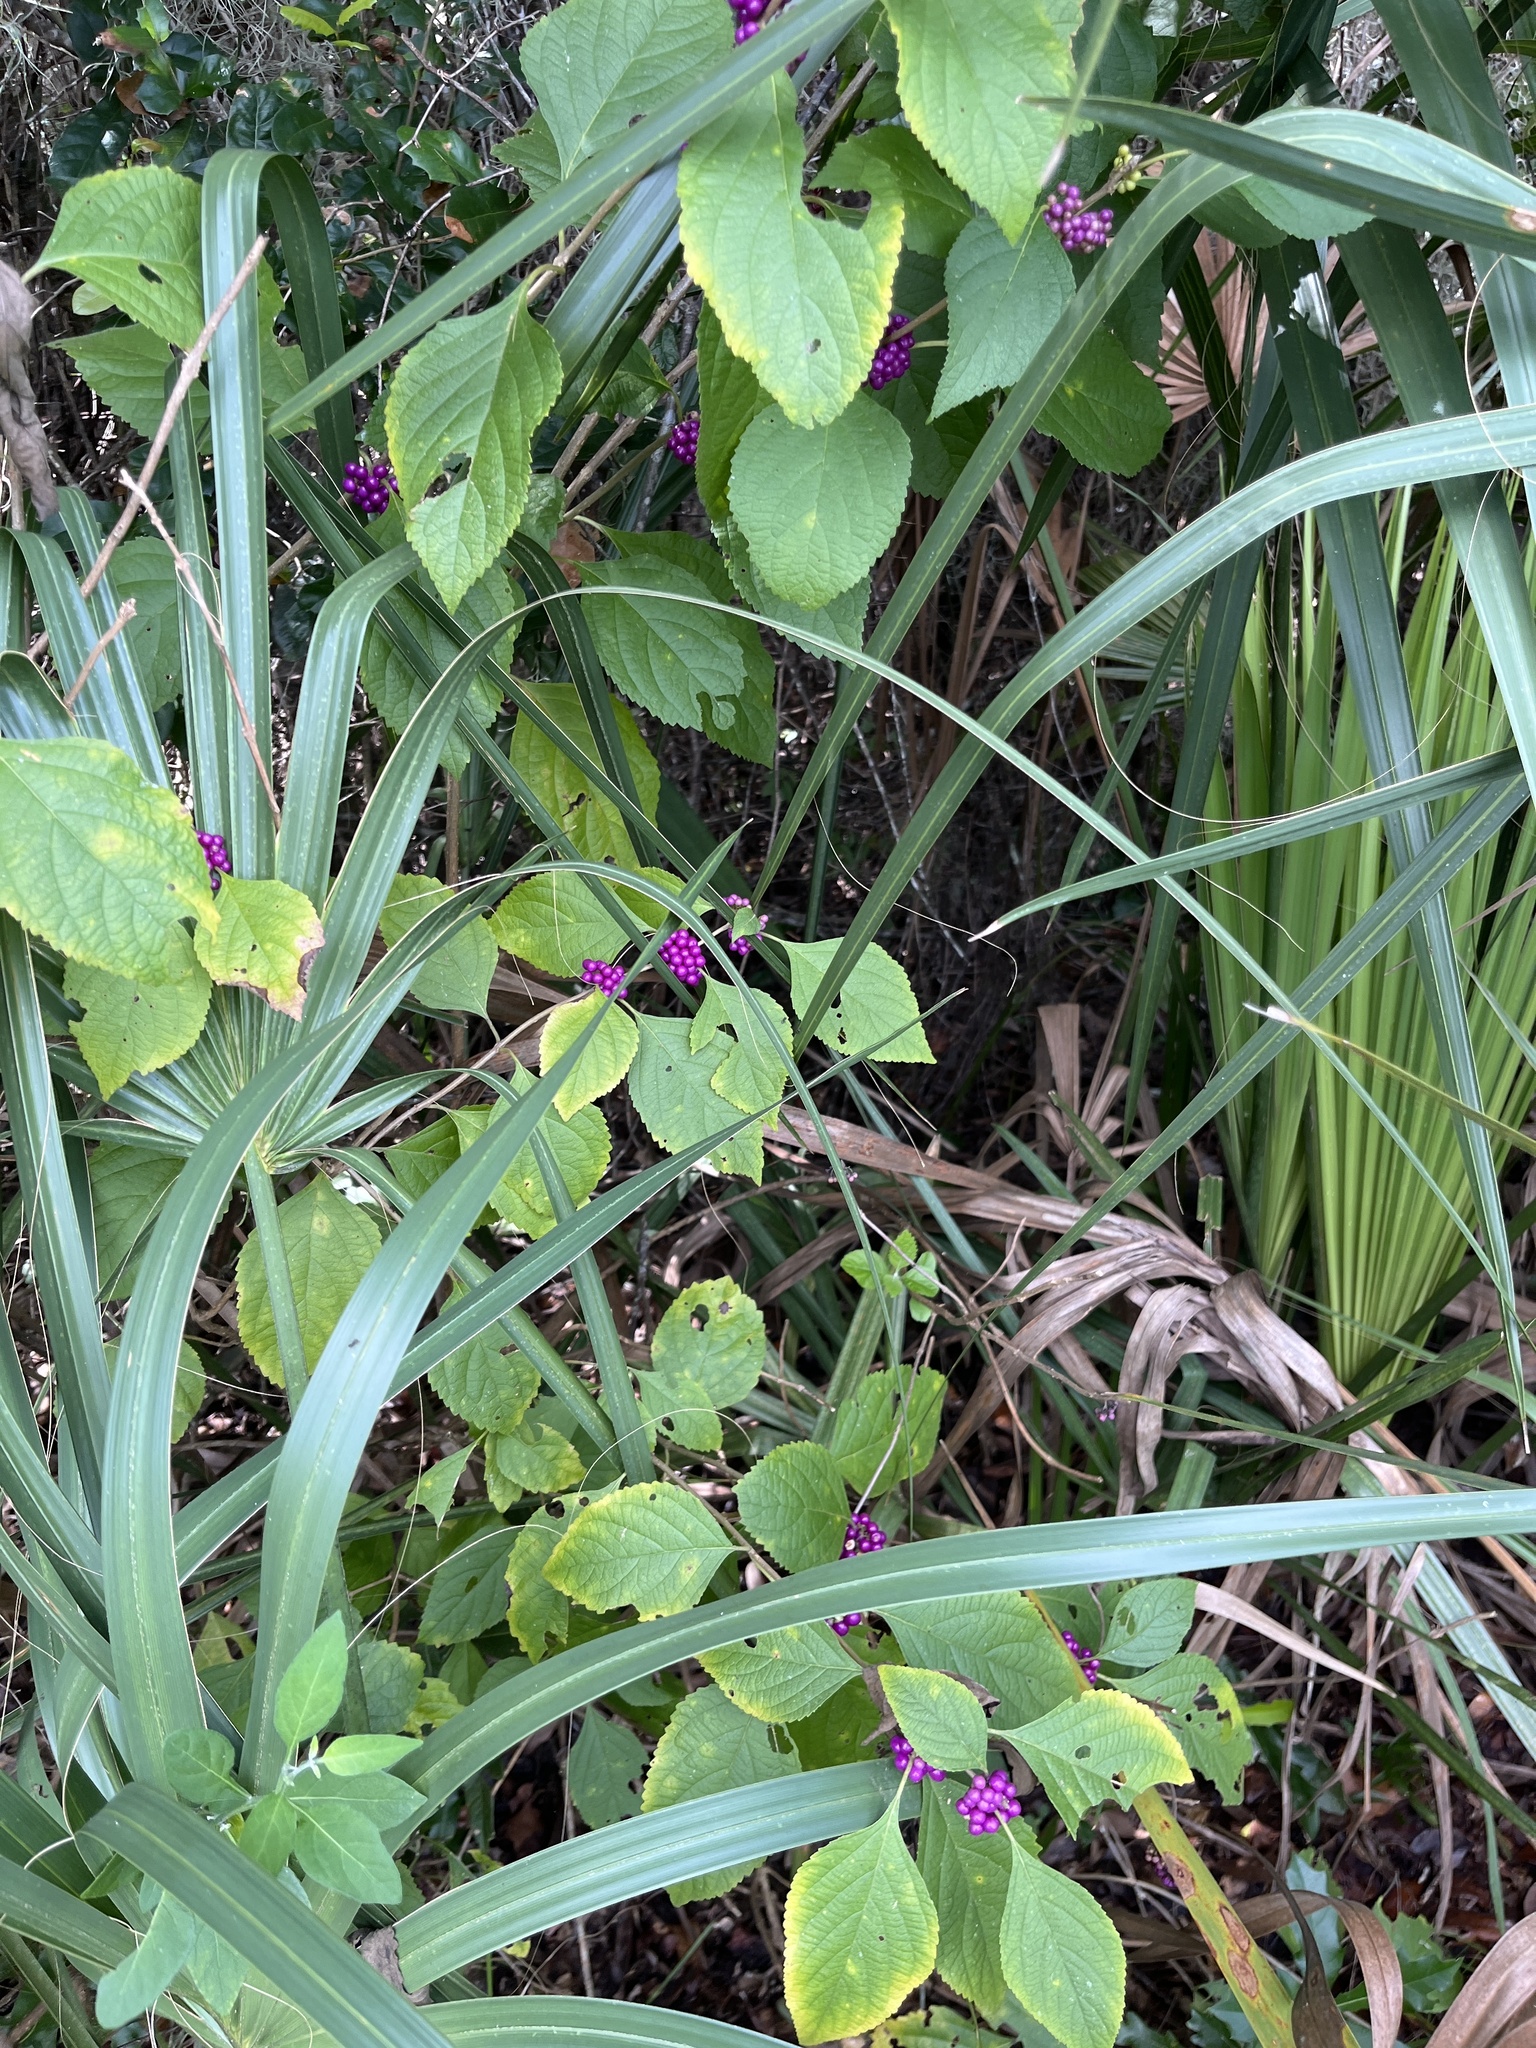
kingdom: Plantae
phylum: Tracheophyta
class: Magnoliopsida
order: Lamiales
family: Lamiaceae
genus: Callicarpa
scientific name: Callicarpa americana
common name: American beautyberry
